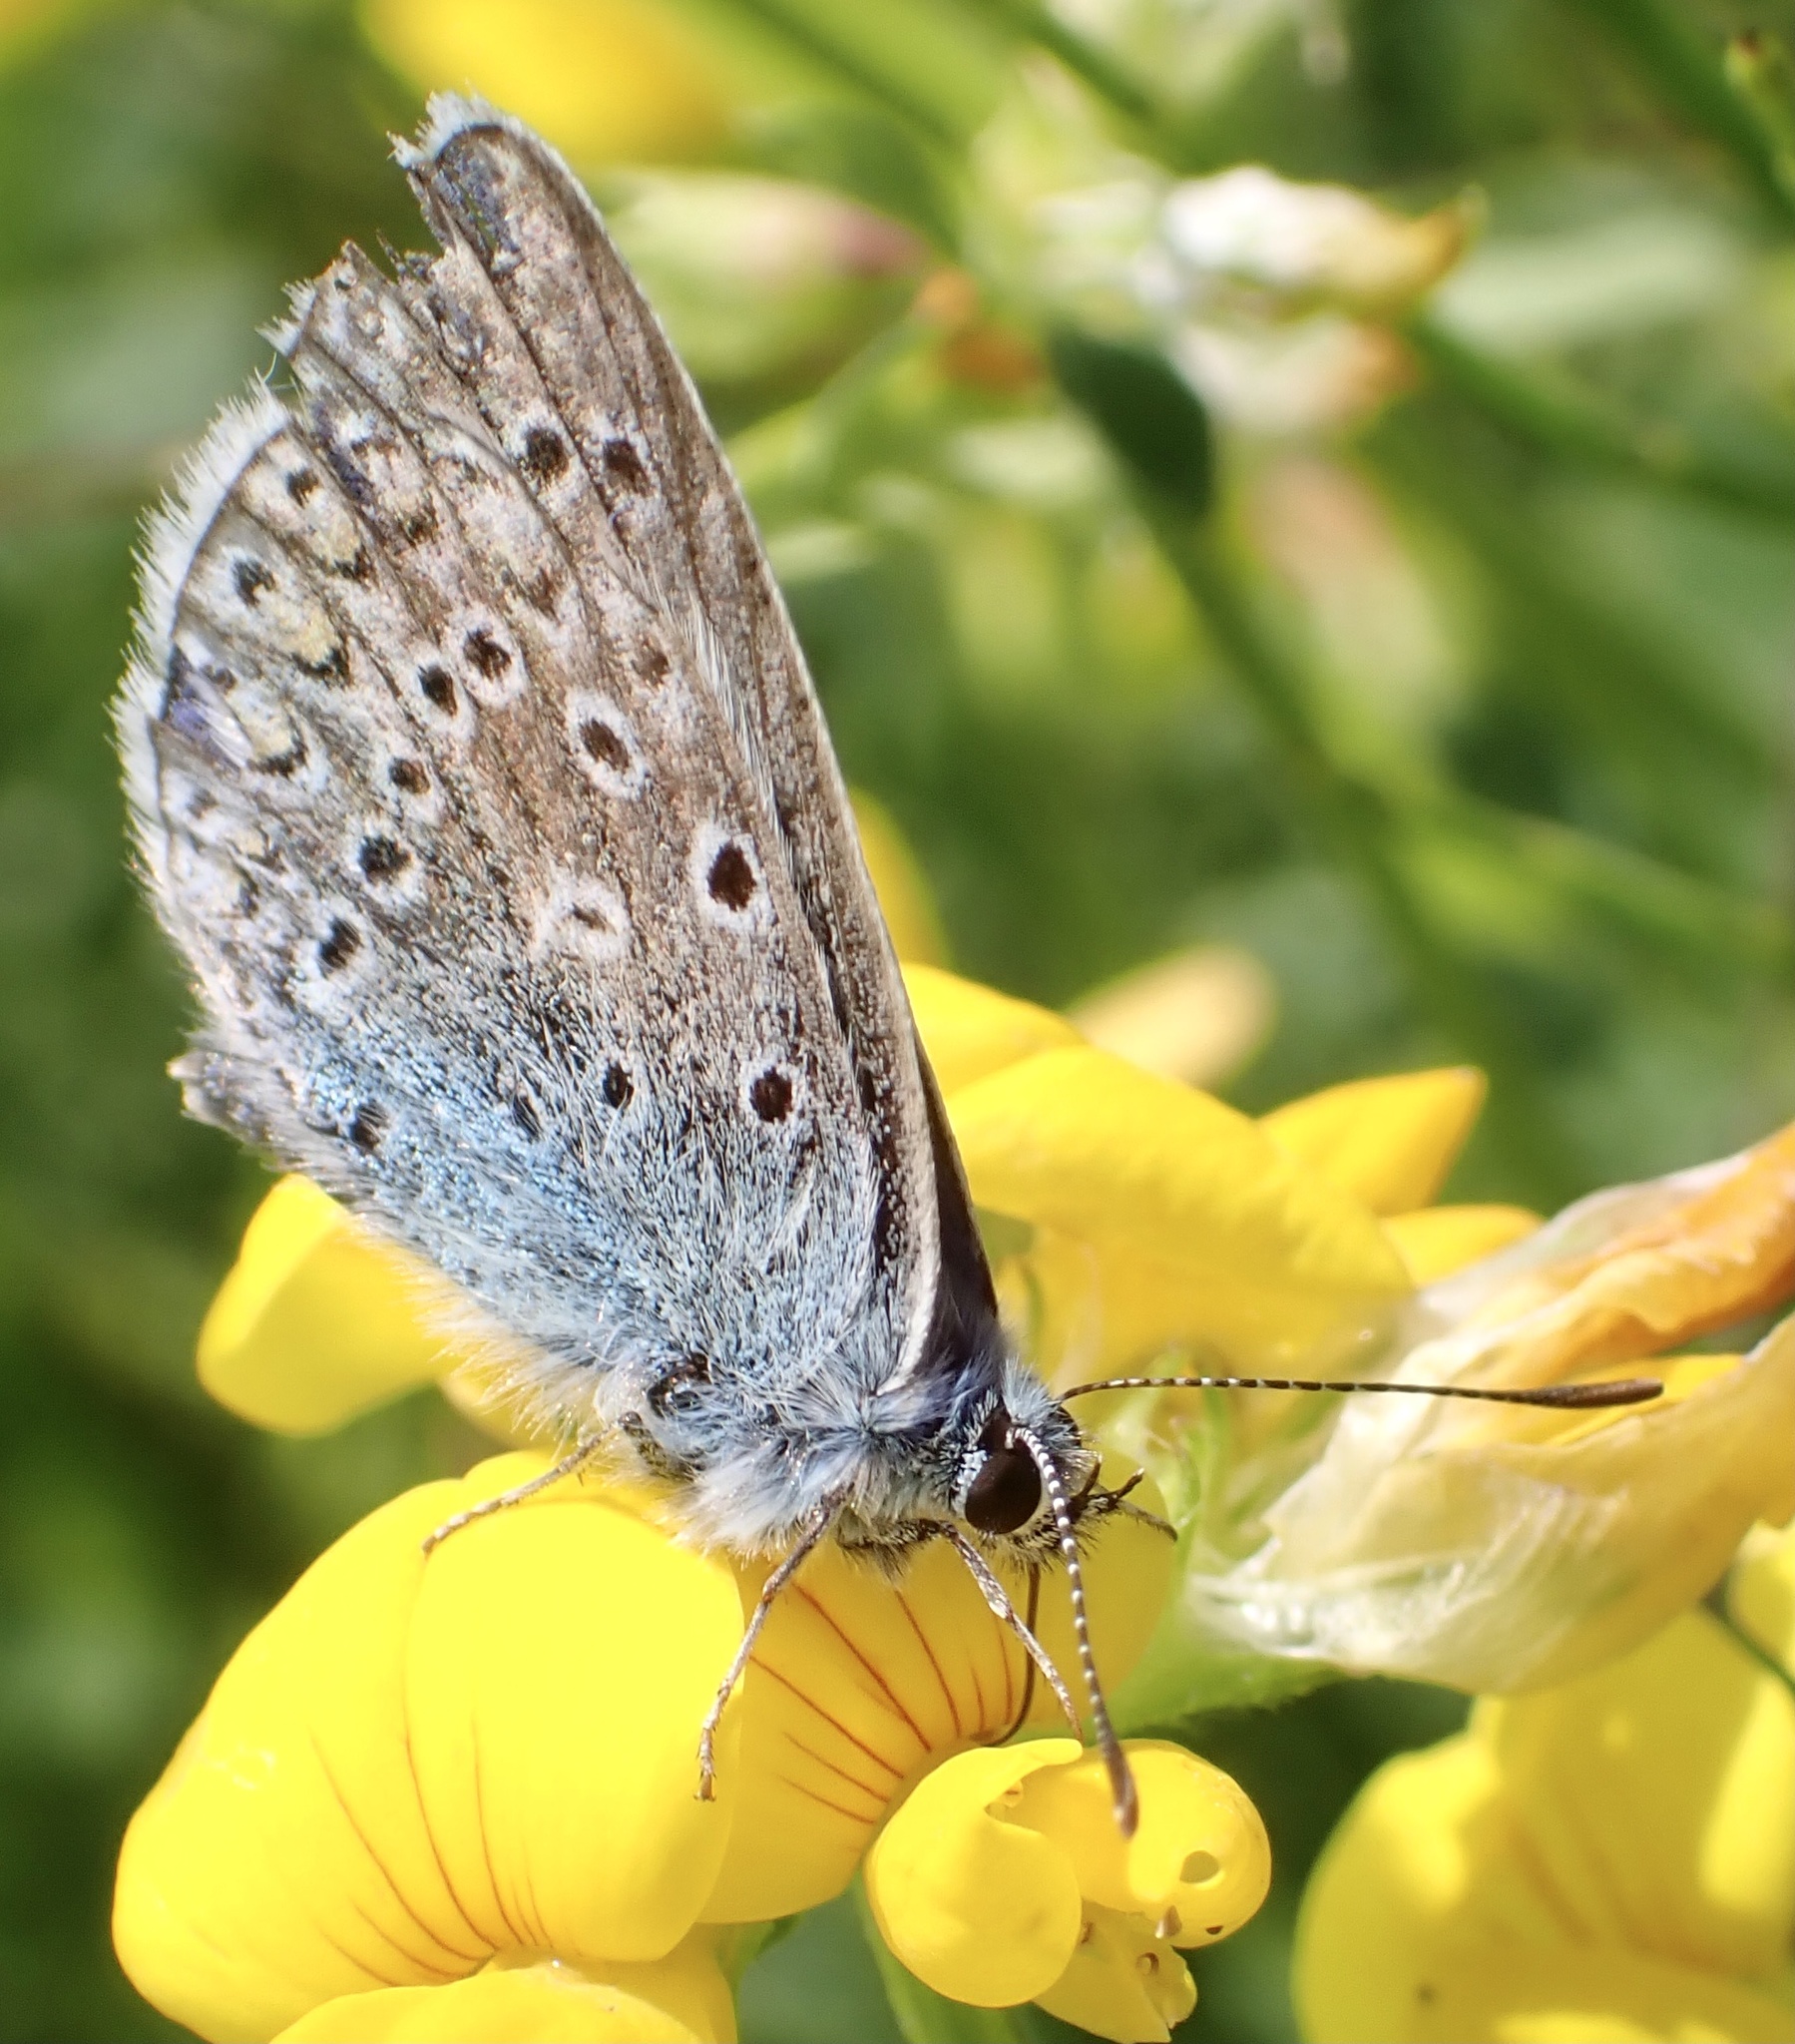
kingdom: Animalia
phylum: Arthropoda
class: Insecta
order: Lepidoptera
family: Lycaenidae
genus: Polyommatus
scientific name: Polyommatus icarus
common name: Common blue
